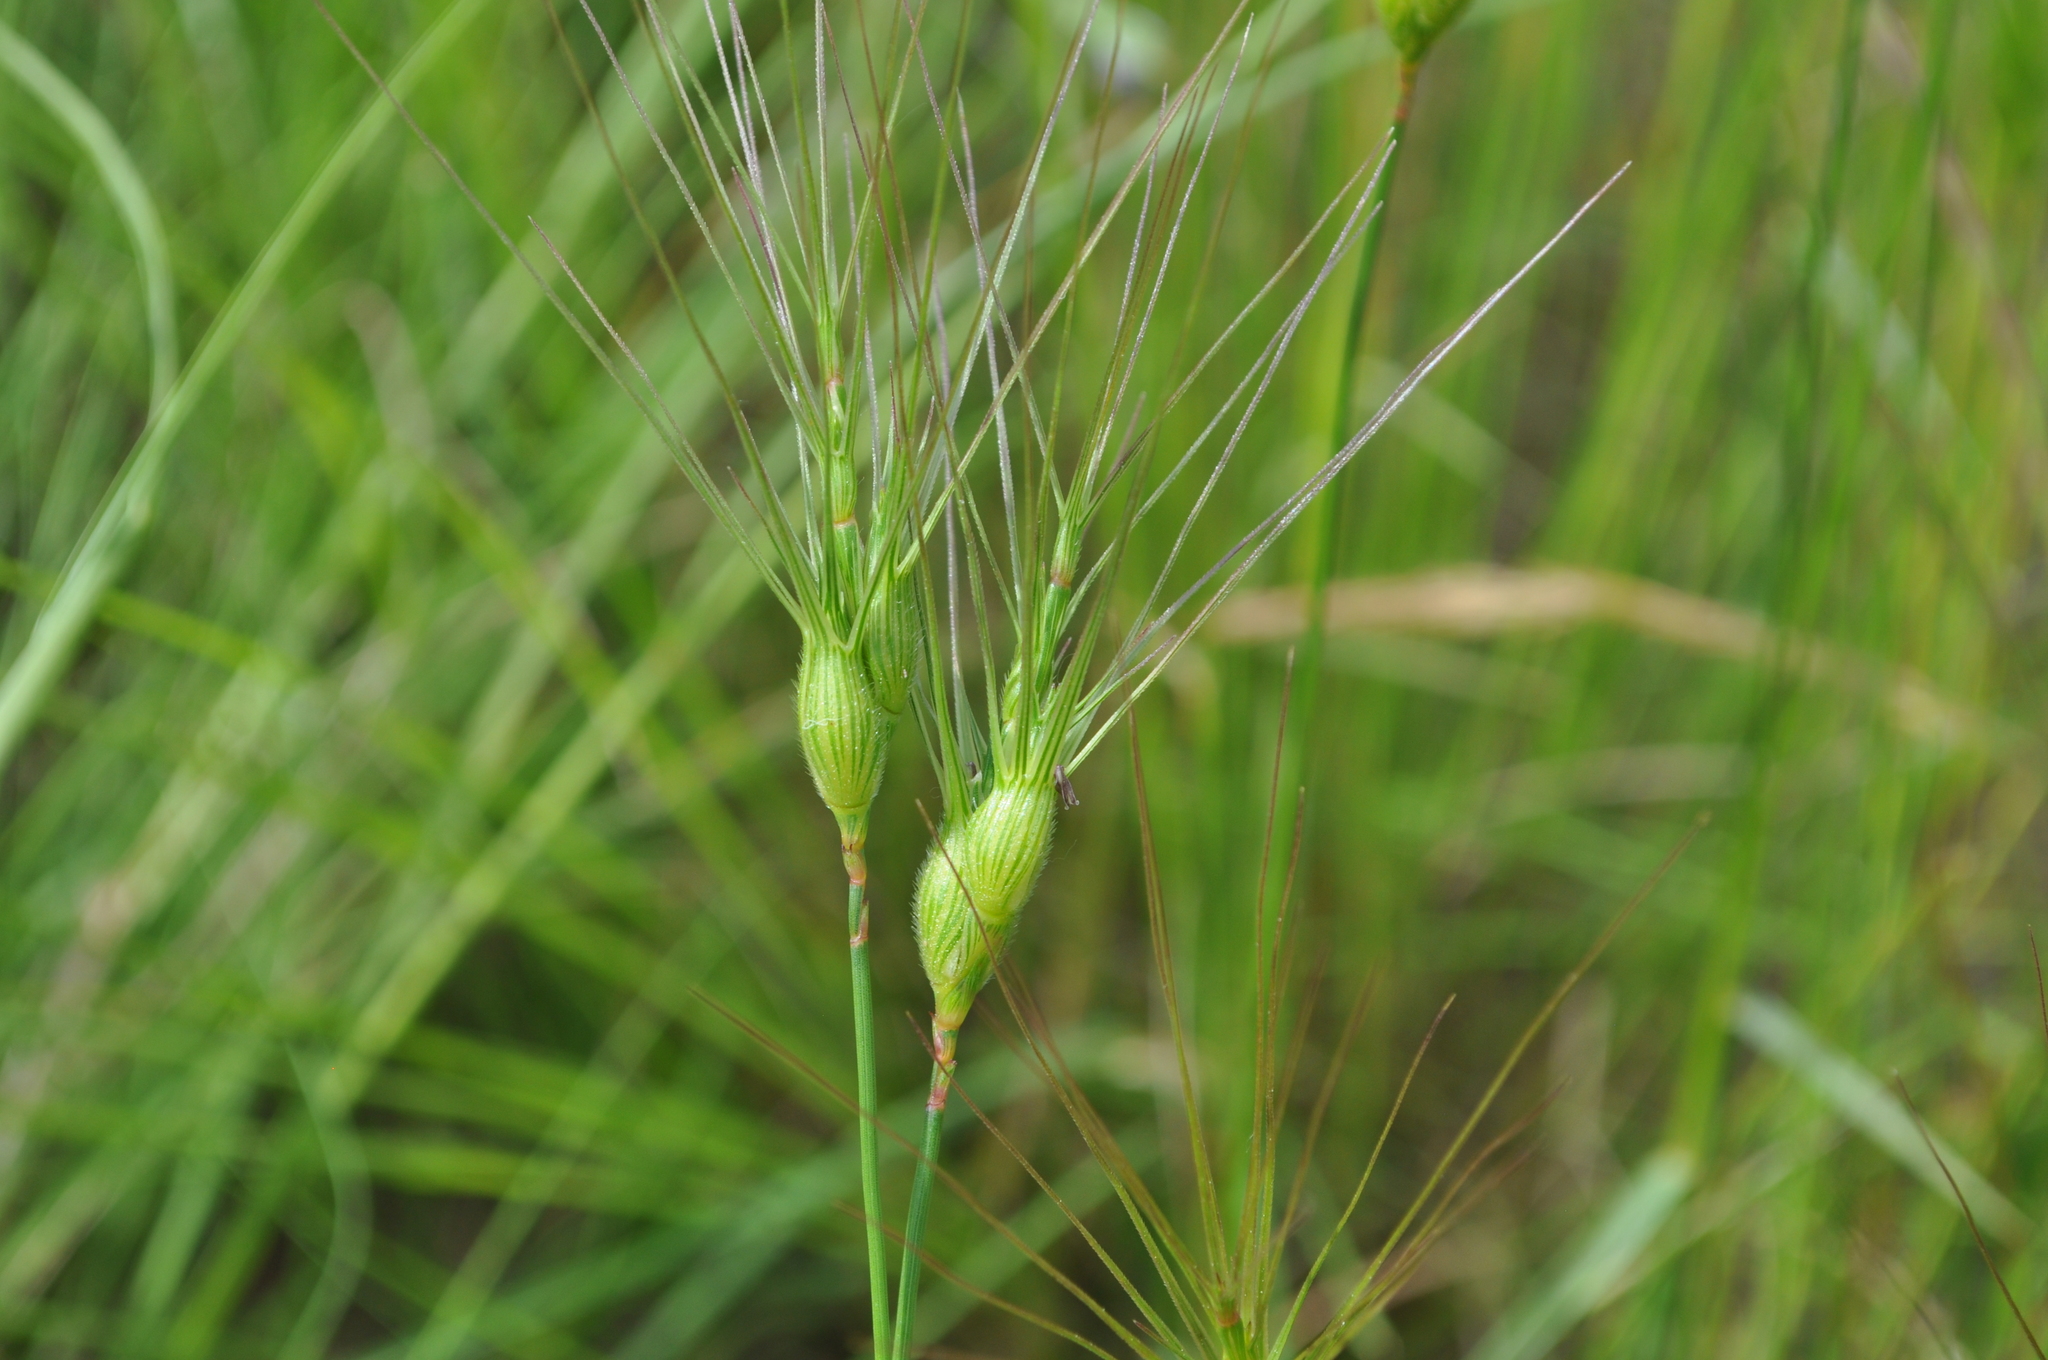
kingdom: Plantae
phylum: Tracheophyta
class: Liliopsida
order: Poales
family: Poaceae
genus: Aegilops
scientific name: Aegilops neglecta
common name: Three-awn goat grass
